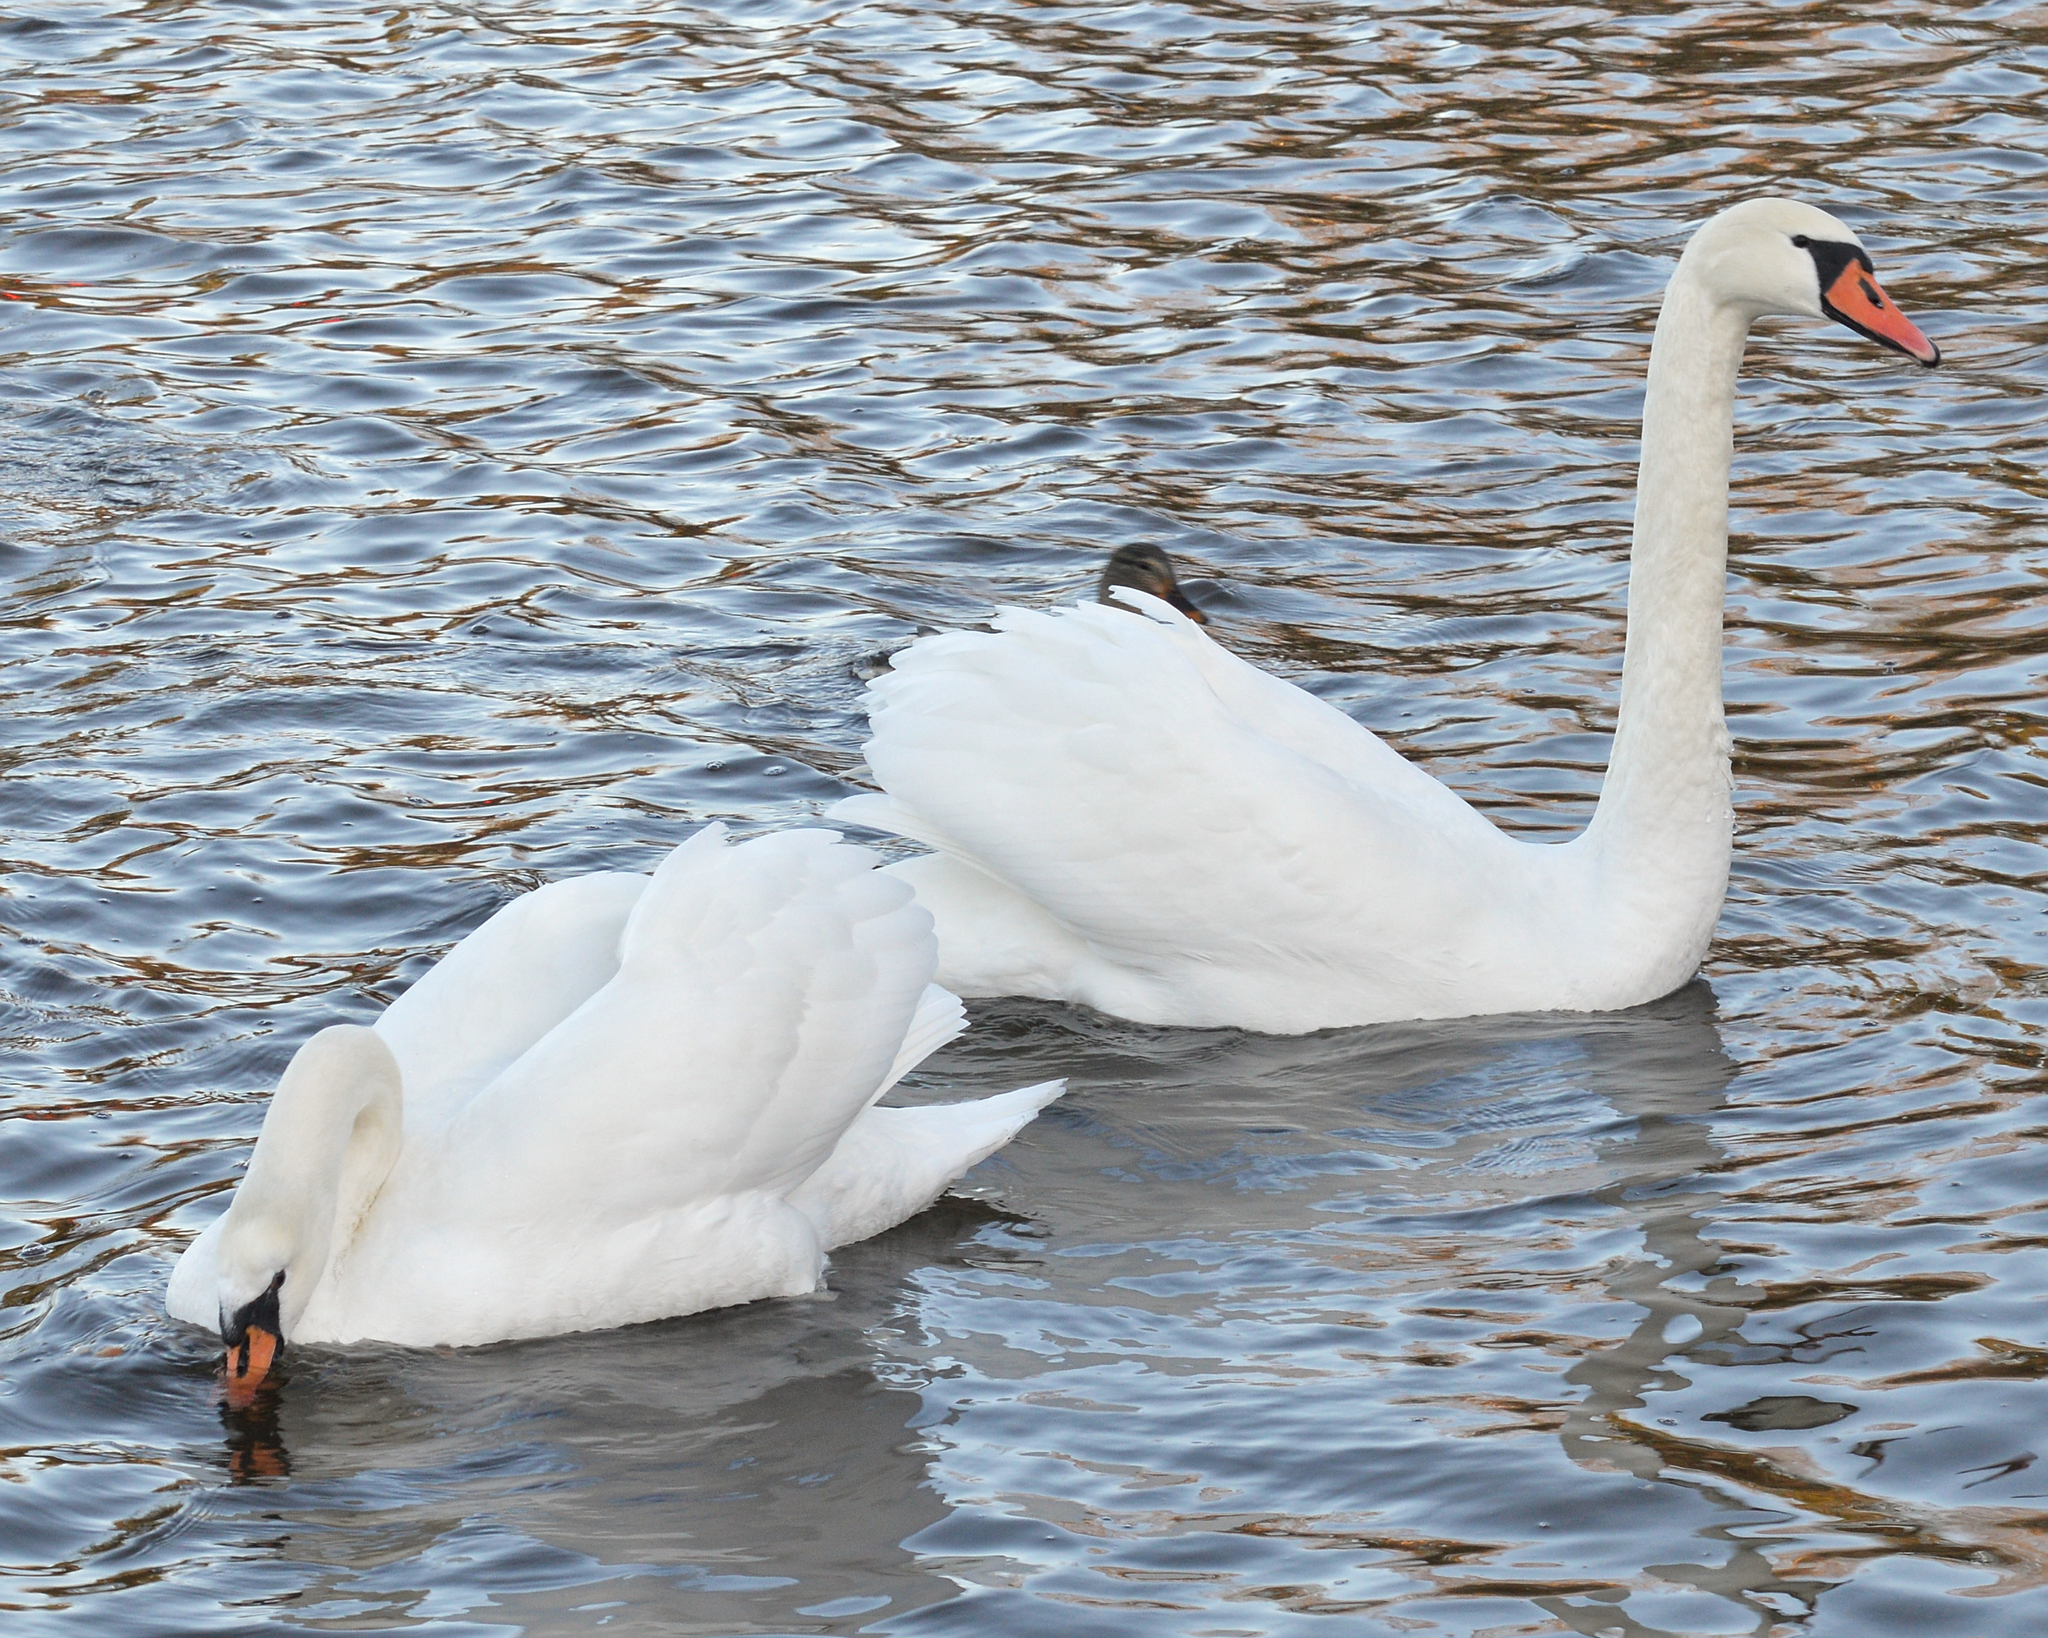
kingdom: Animalia
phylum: Chordata
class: Aves
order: Anseriformes
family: Anatidae
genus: Cygnus
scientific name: Cygnus olor
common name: Mute swan
